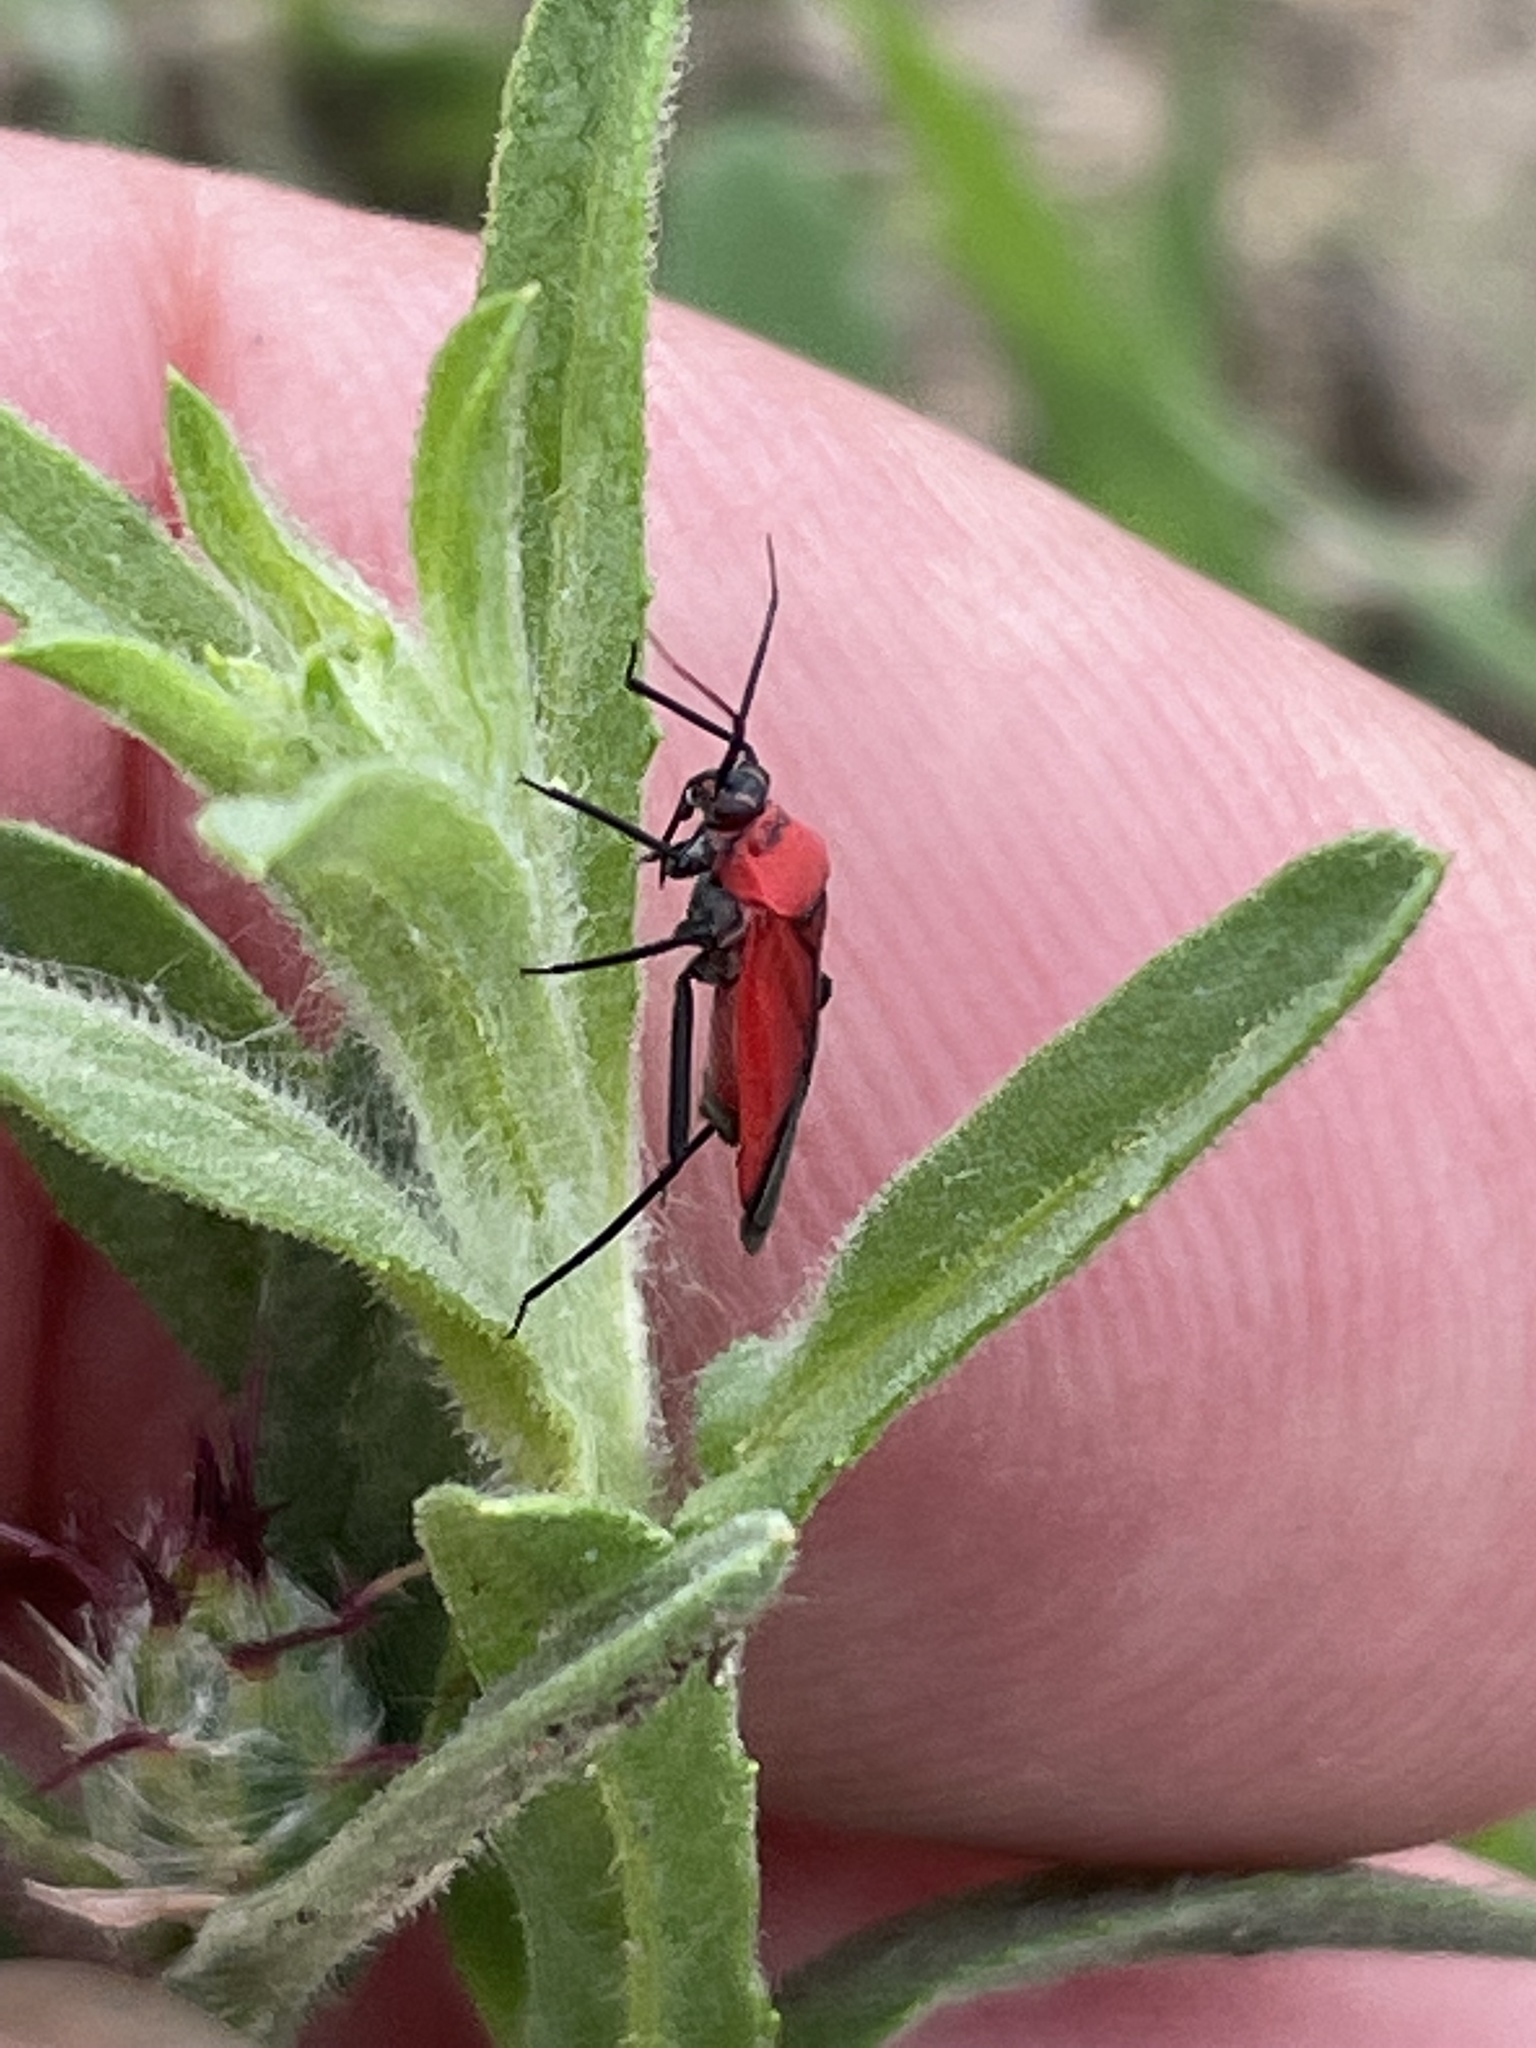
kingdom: Animalia
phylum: Arthropoda
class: Insecta
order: Hemiptera
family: Miridae
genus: Lopidea
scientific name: Lopidea major
